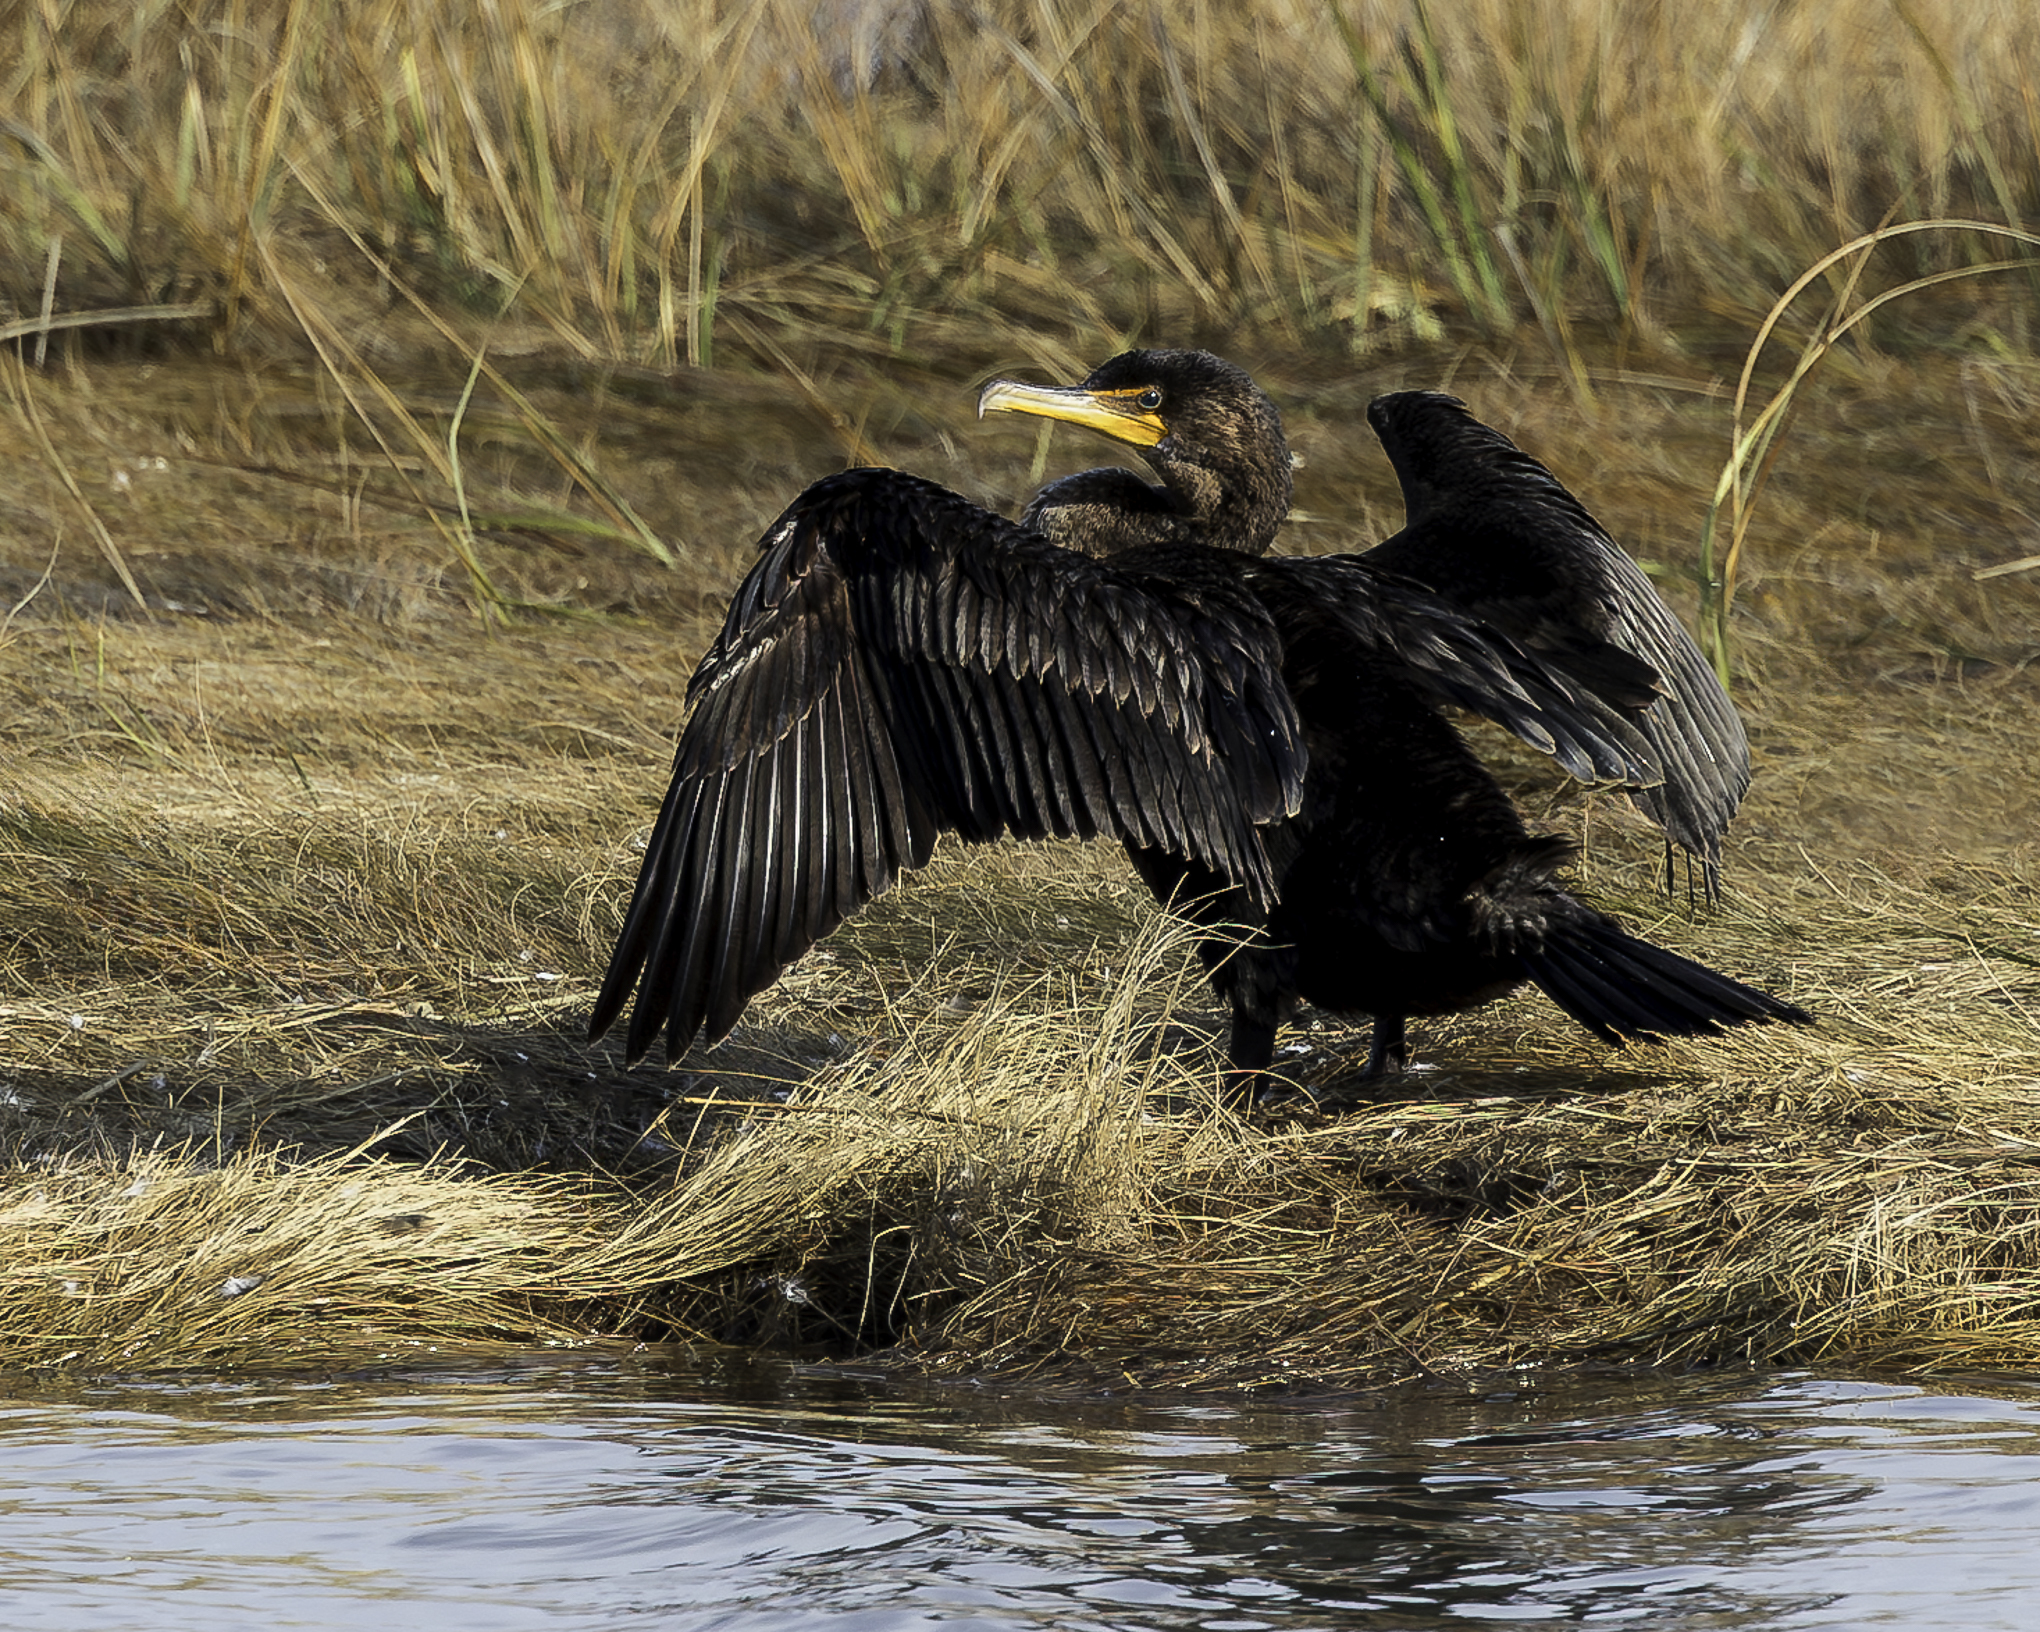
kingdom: Animalia
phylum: Chordata
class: Aves
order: Suliformes
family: Phalacrocoracidae
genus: Phalacrocorax
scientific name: Phalacrocorax auritus
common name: Double-crested cormorant
